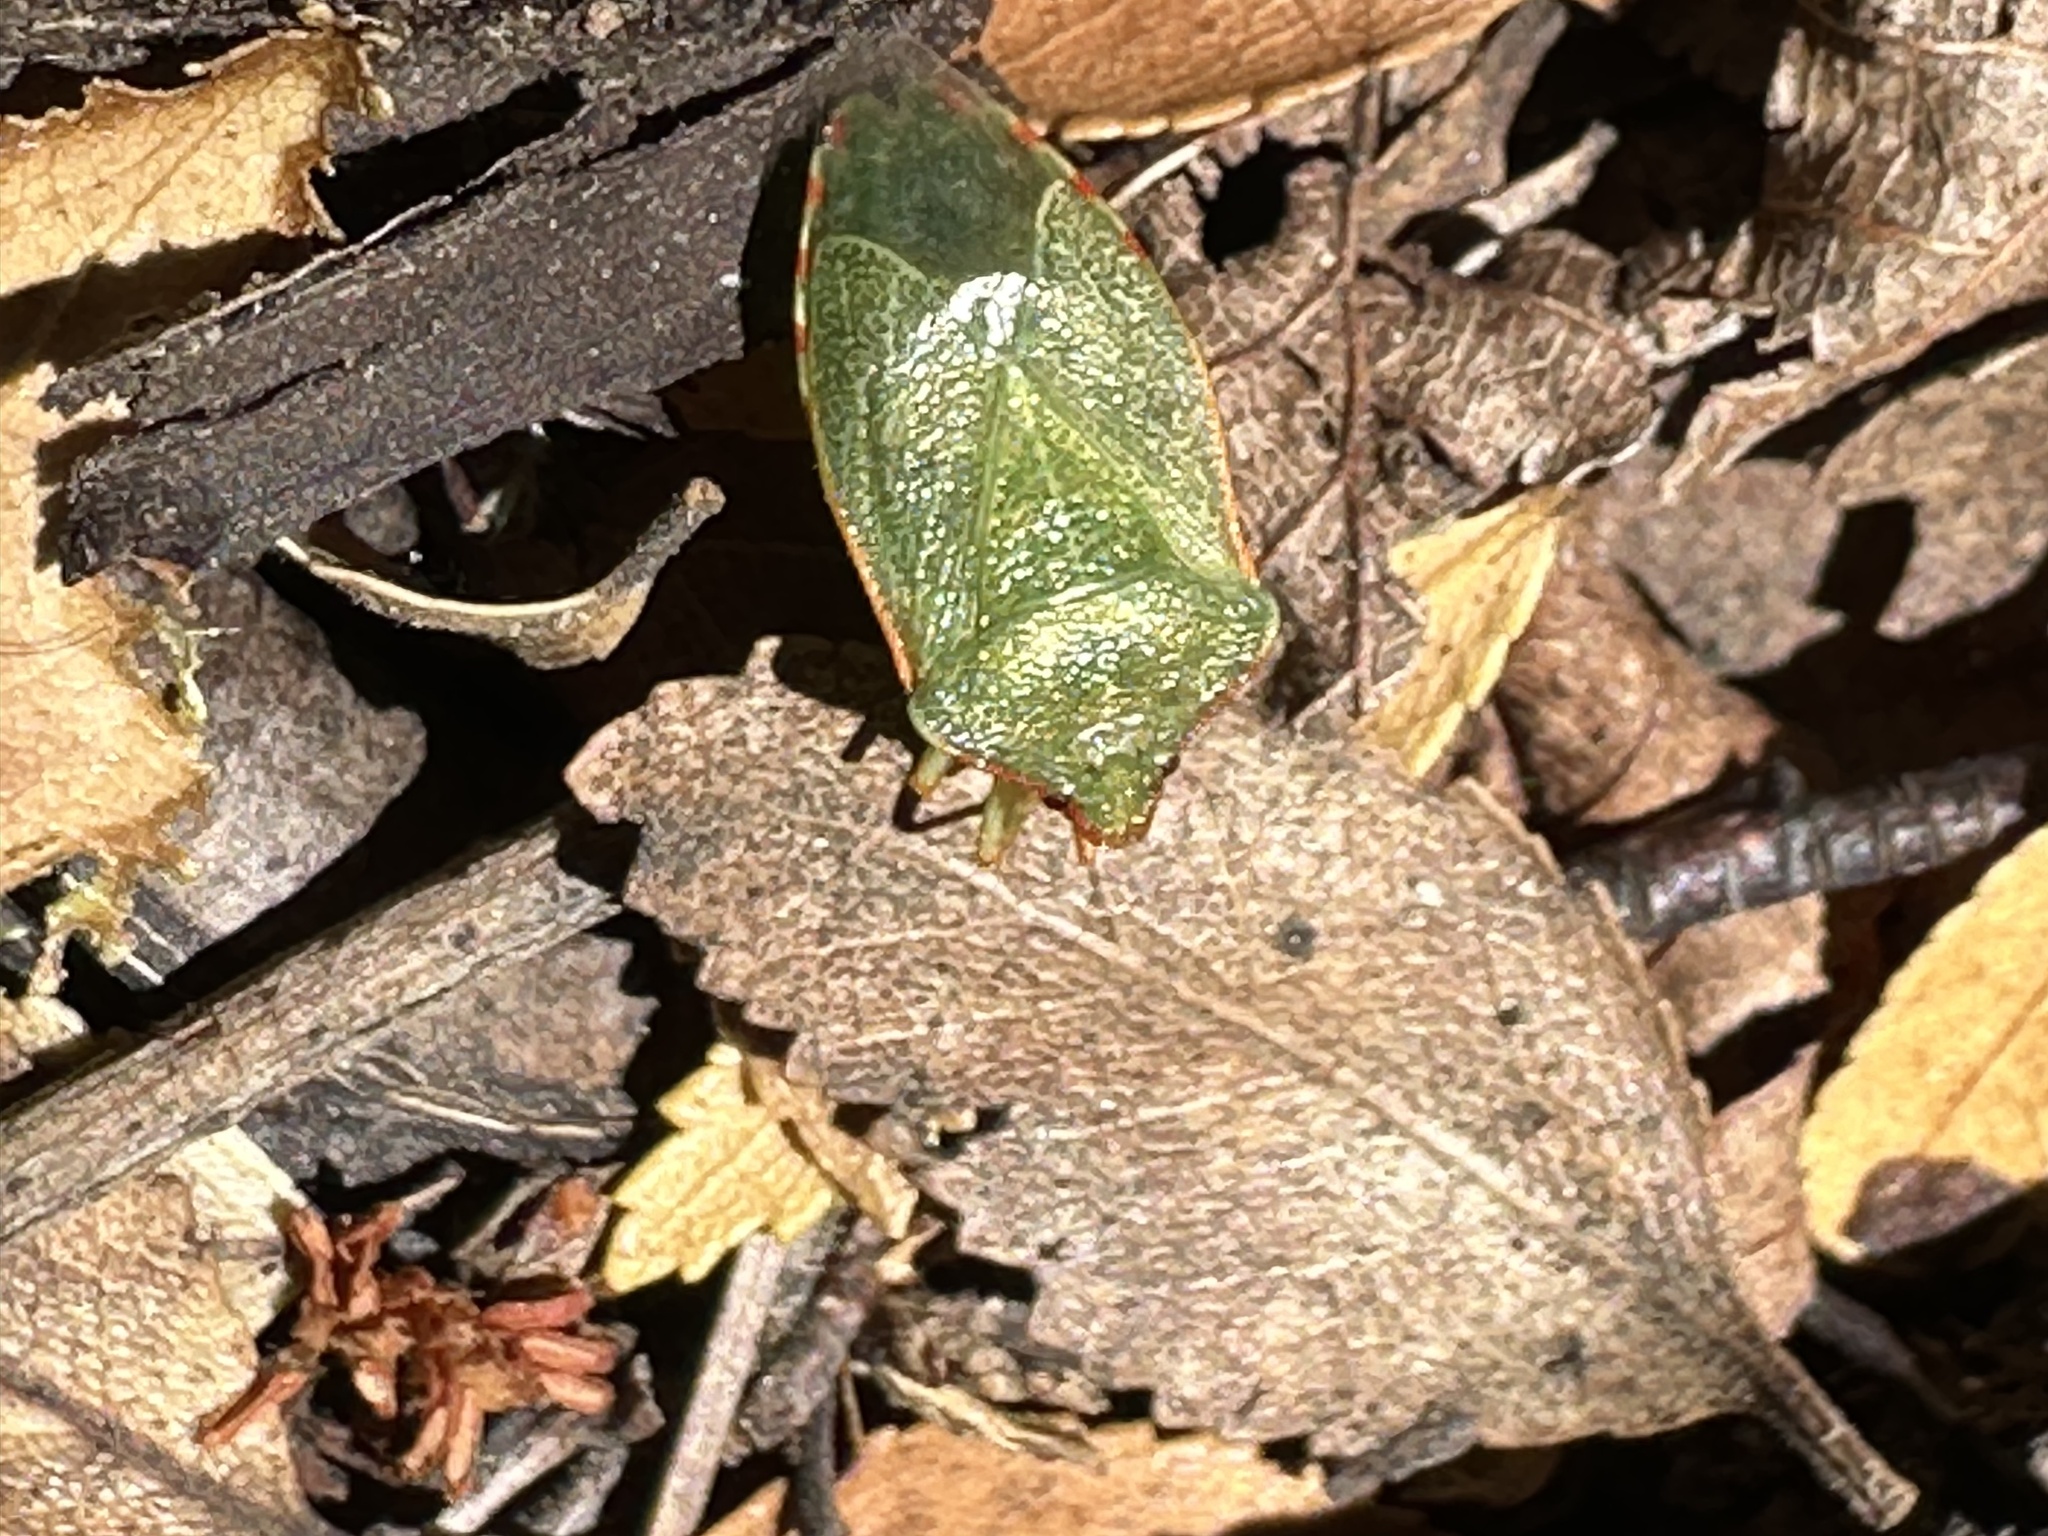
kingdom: Animalia
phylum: Arthropoda
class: Insecta
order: Hemiptera
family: Acanthosomatidae
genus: Sinopla
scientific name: Sinopla perpunctatus
